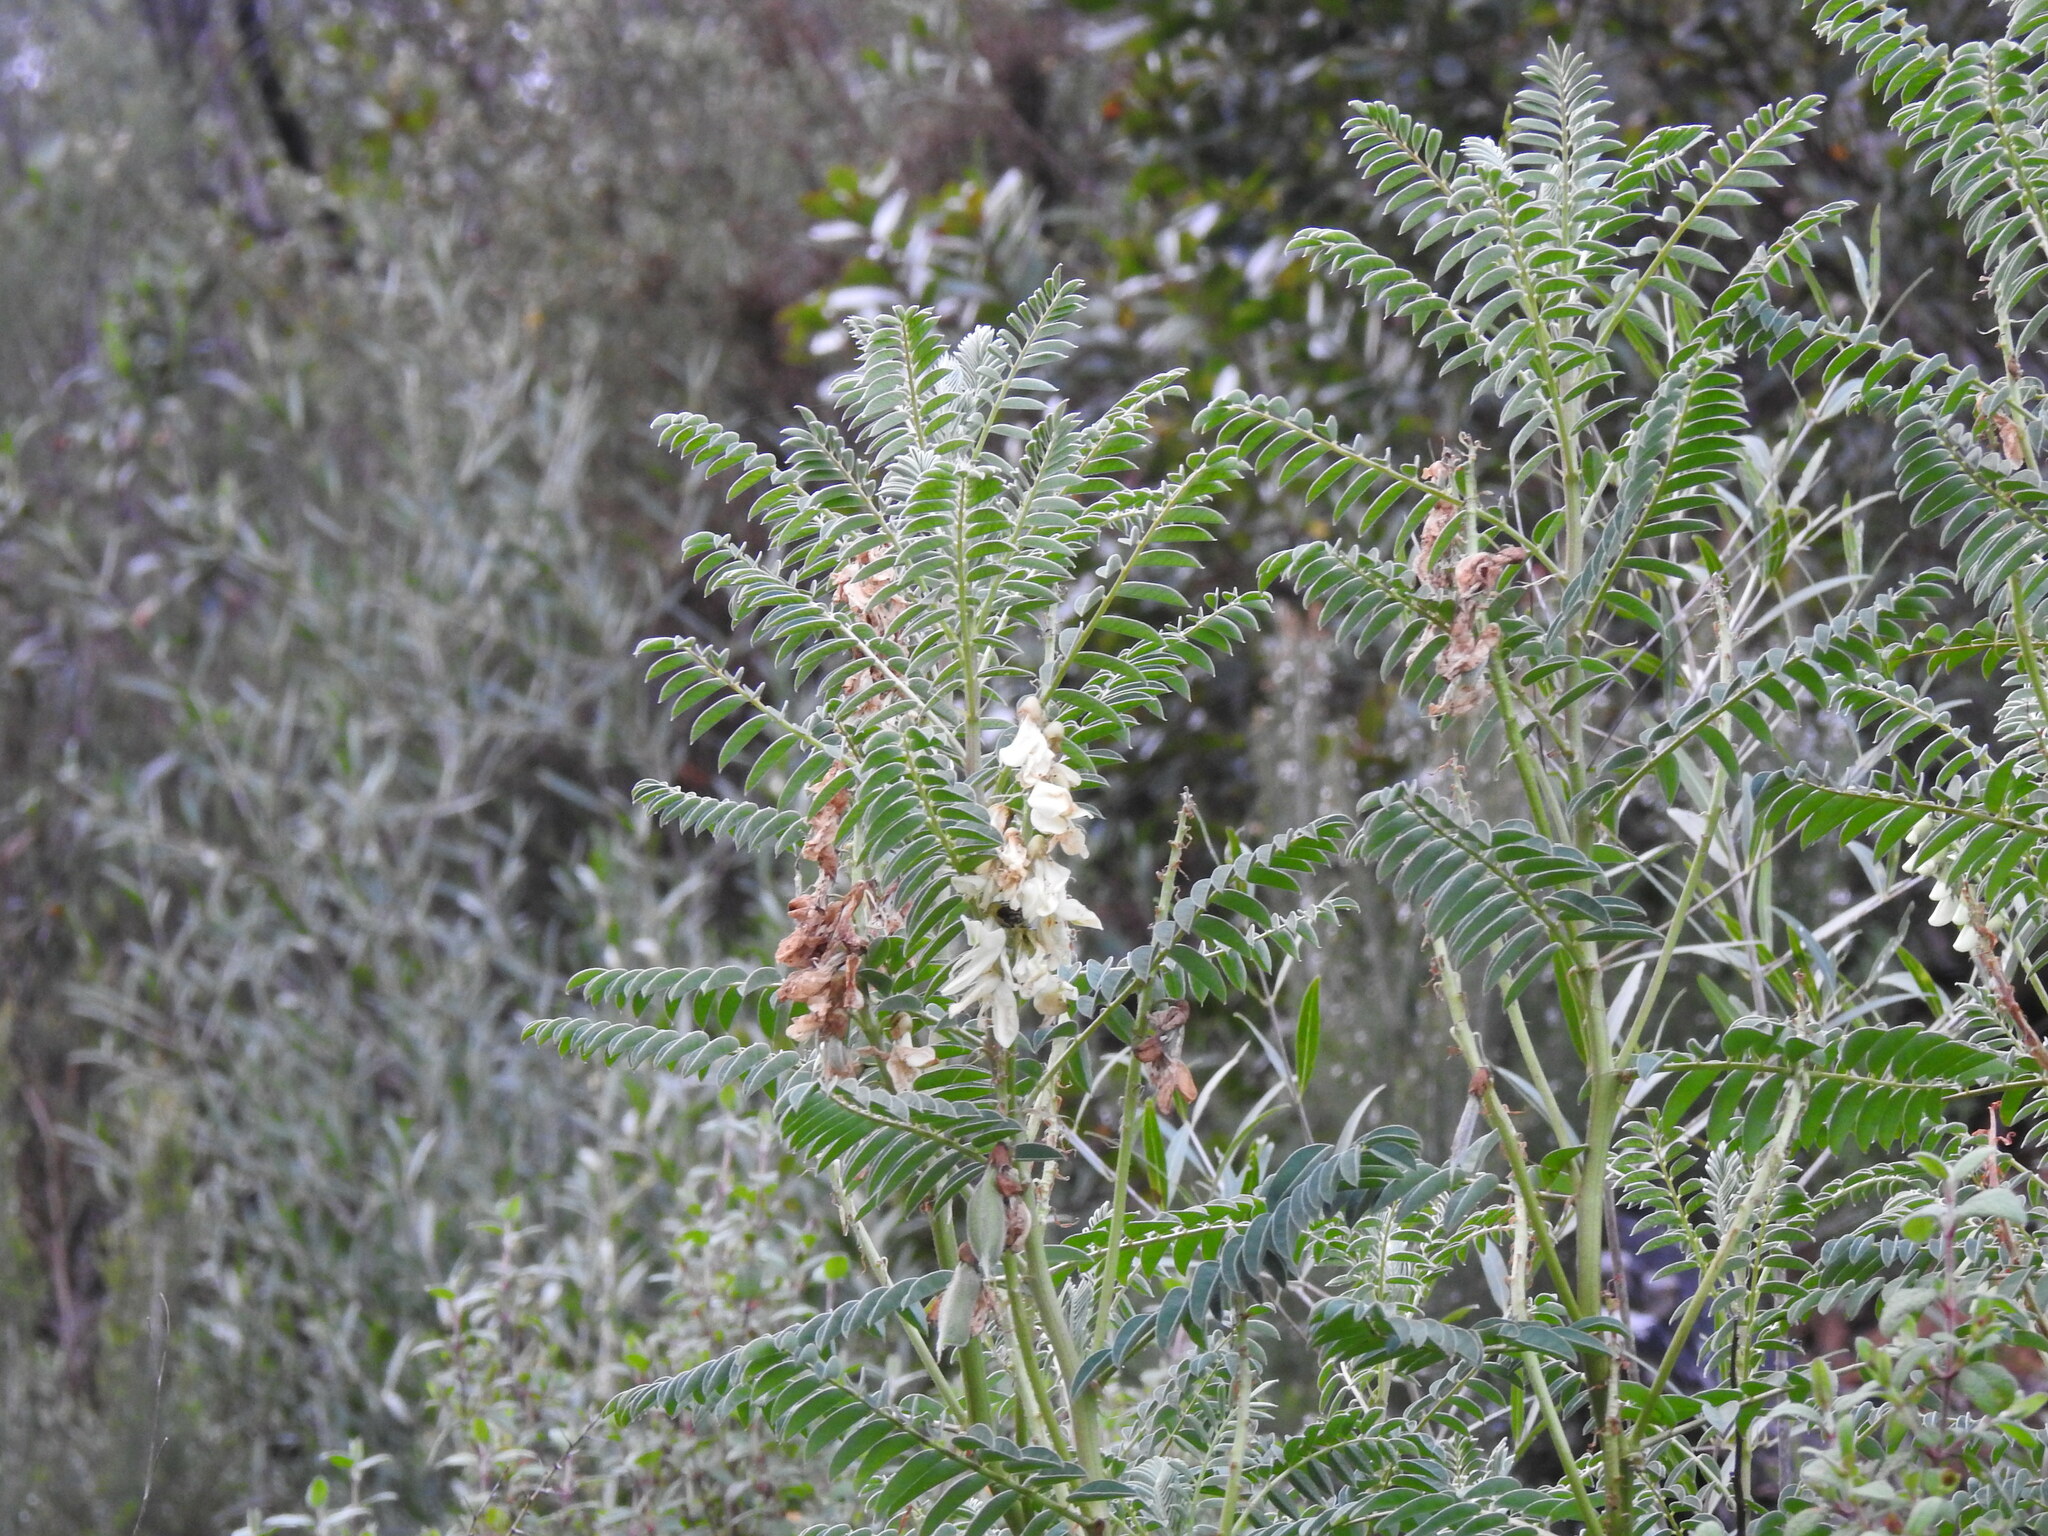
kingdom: Plantae
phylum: Tracheophyta
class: Magnoliopsida
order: Fabales
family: Fabaceae
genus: Erophaca
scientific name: Erophaca baetica
